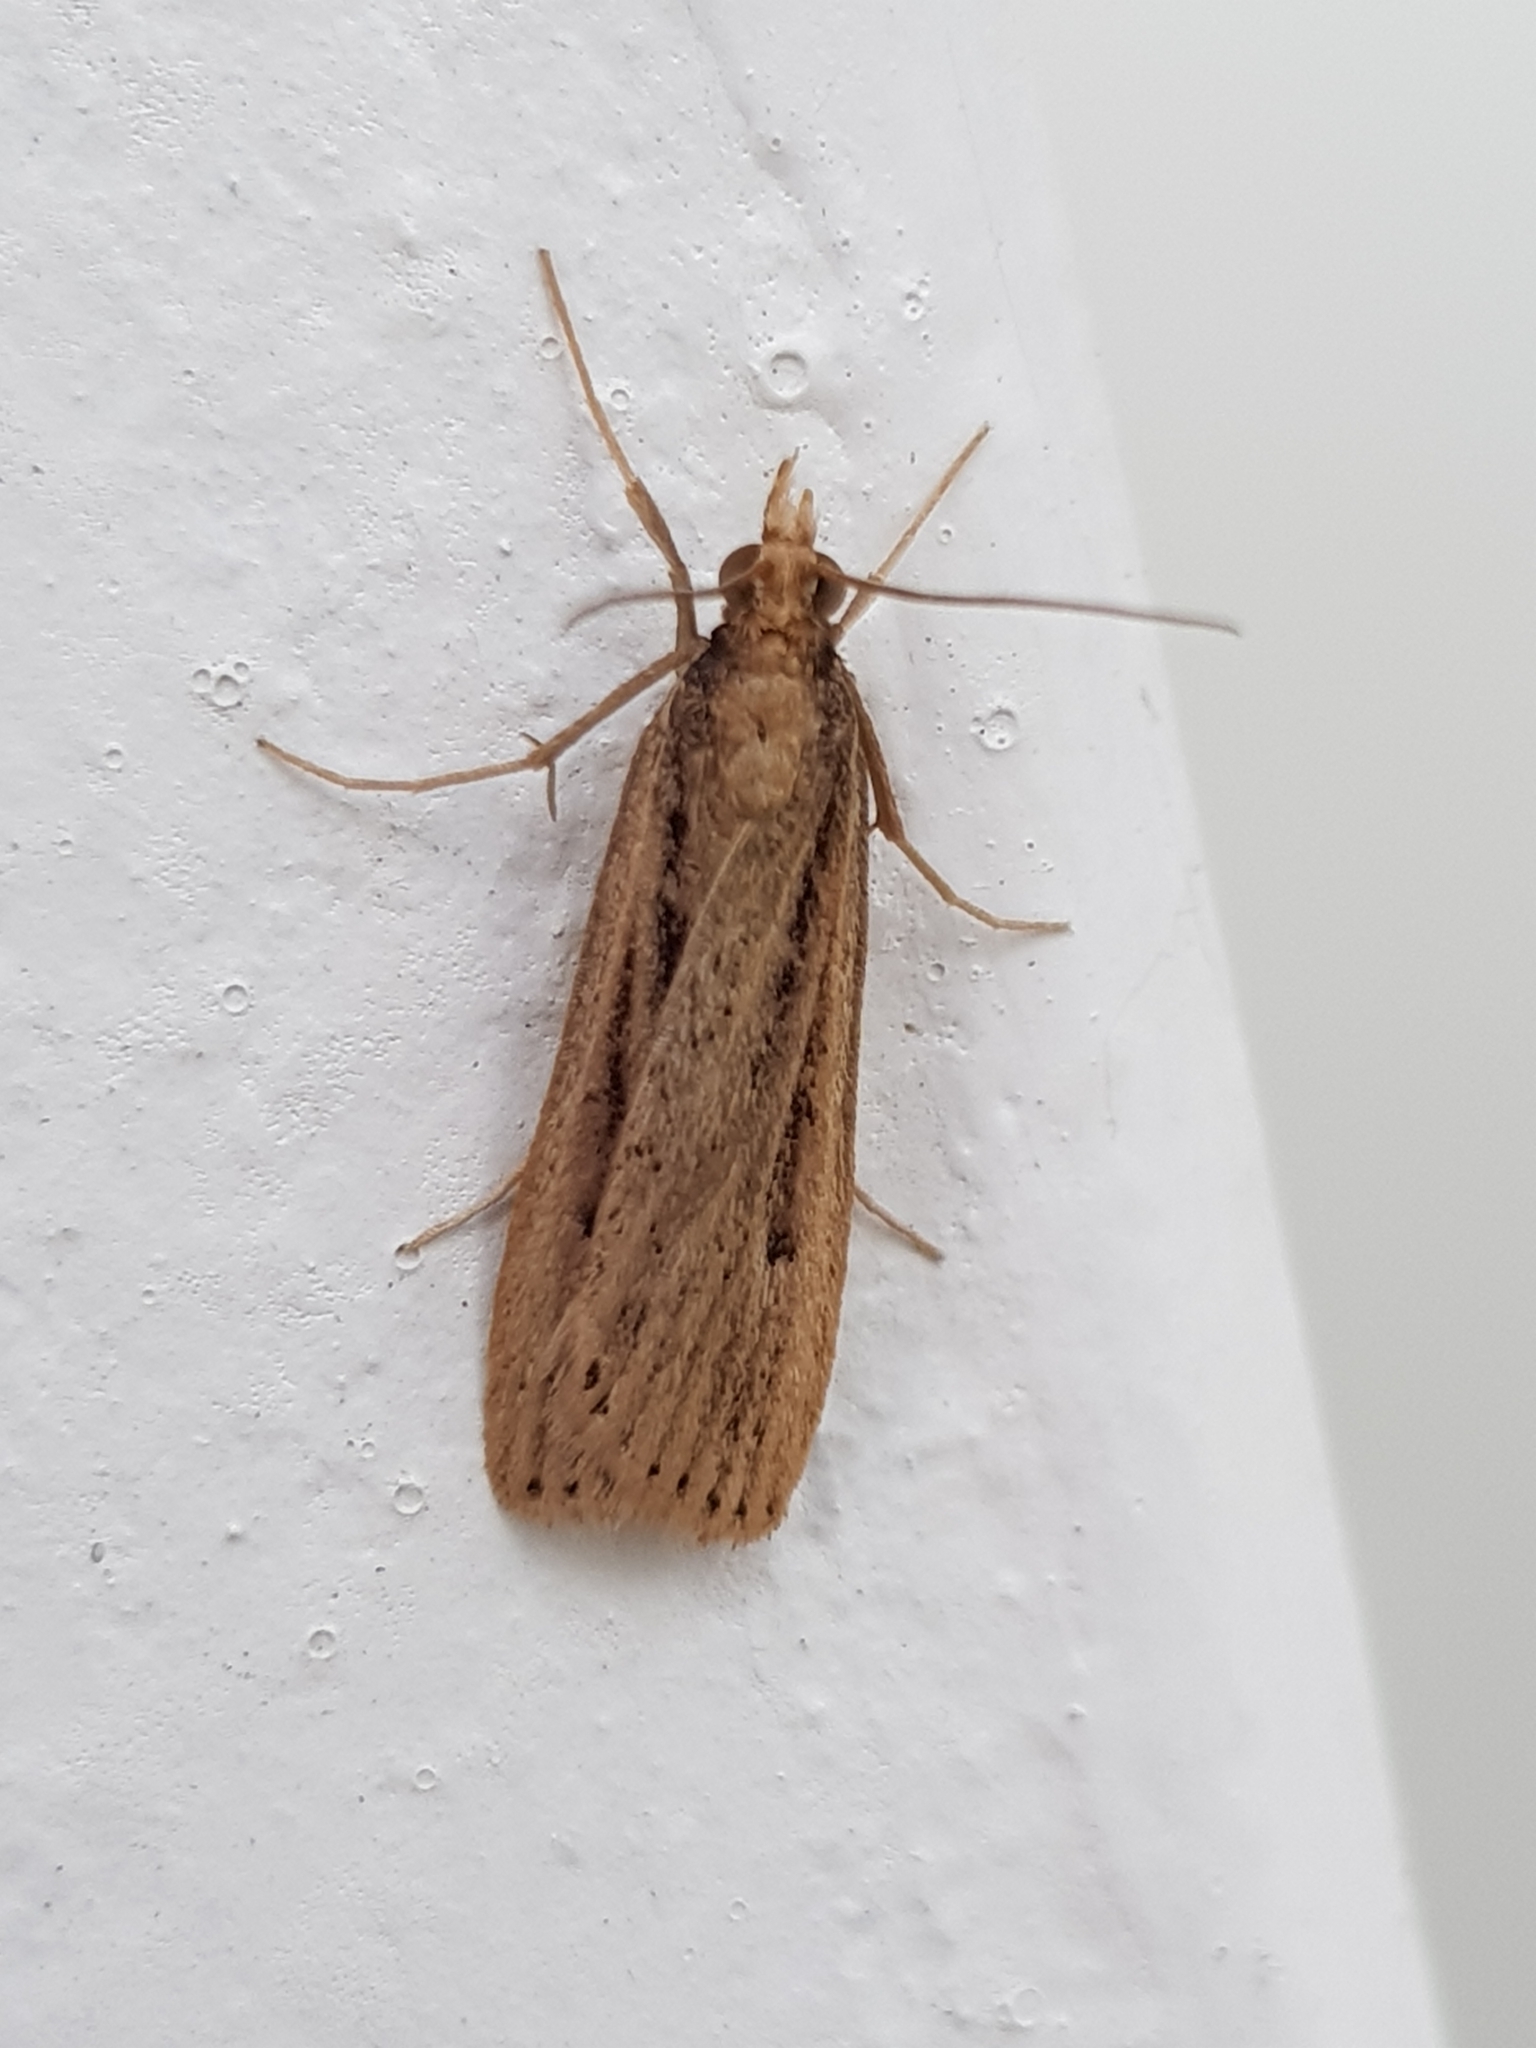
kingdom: Animalia
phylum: Arthropoda
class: Insecta
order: Lepidoptera
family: Crambidae
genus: Eudonia
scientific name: Eudonia sabulosella
